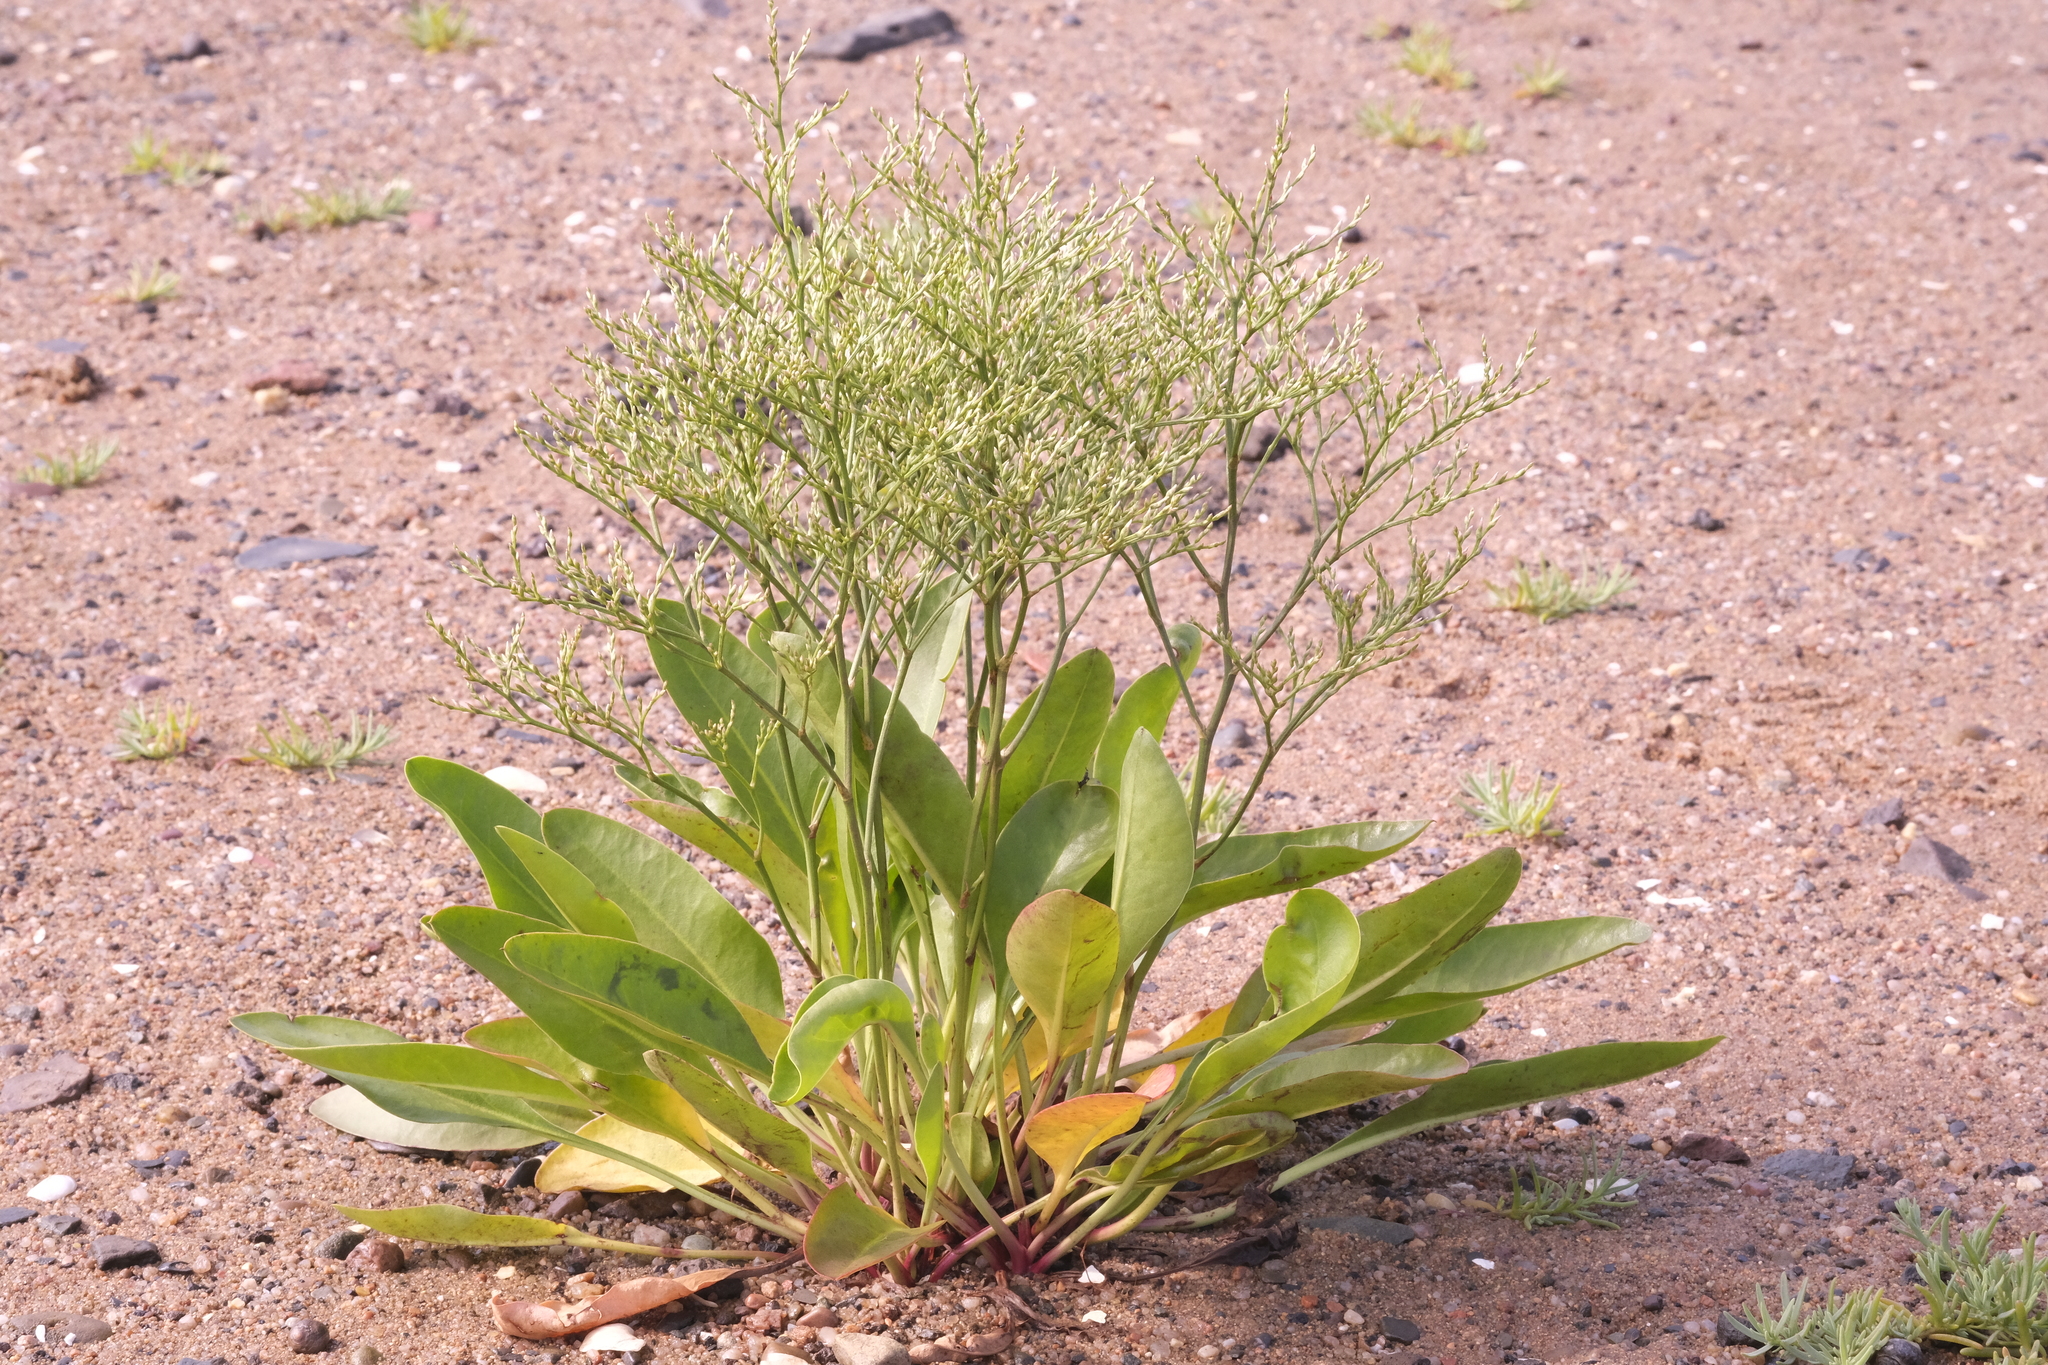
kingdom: Plantae
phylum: Tracheophyta
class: Magnoliopsida
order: Caryophyllales
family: Plumbaginaceae
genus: Limonium
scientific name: Limonium carolinianum
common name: Carolina sea lavender
